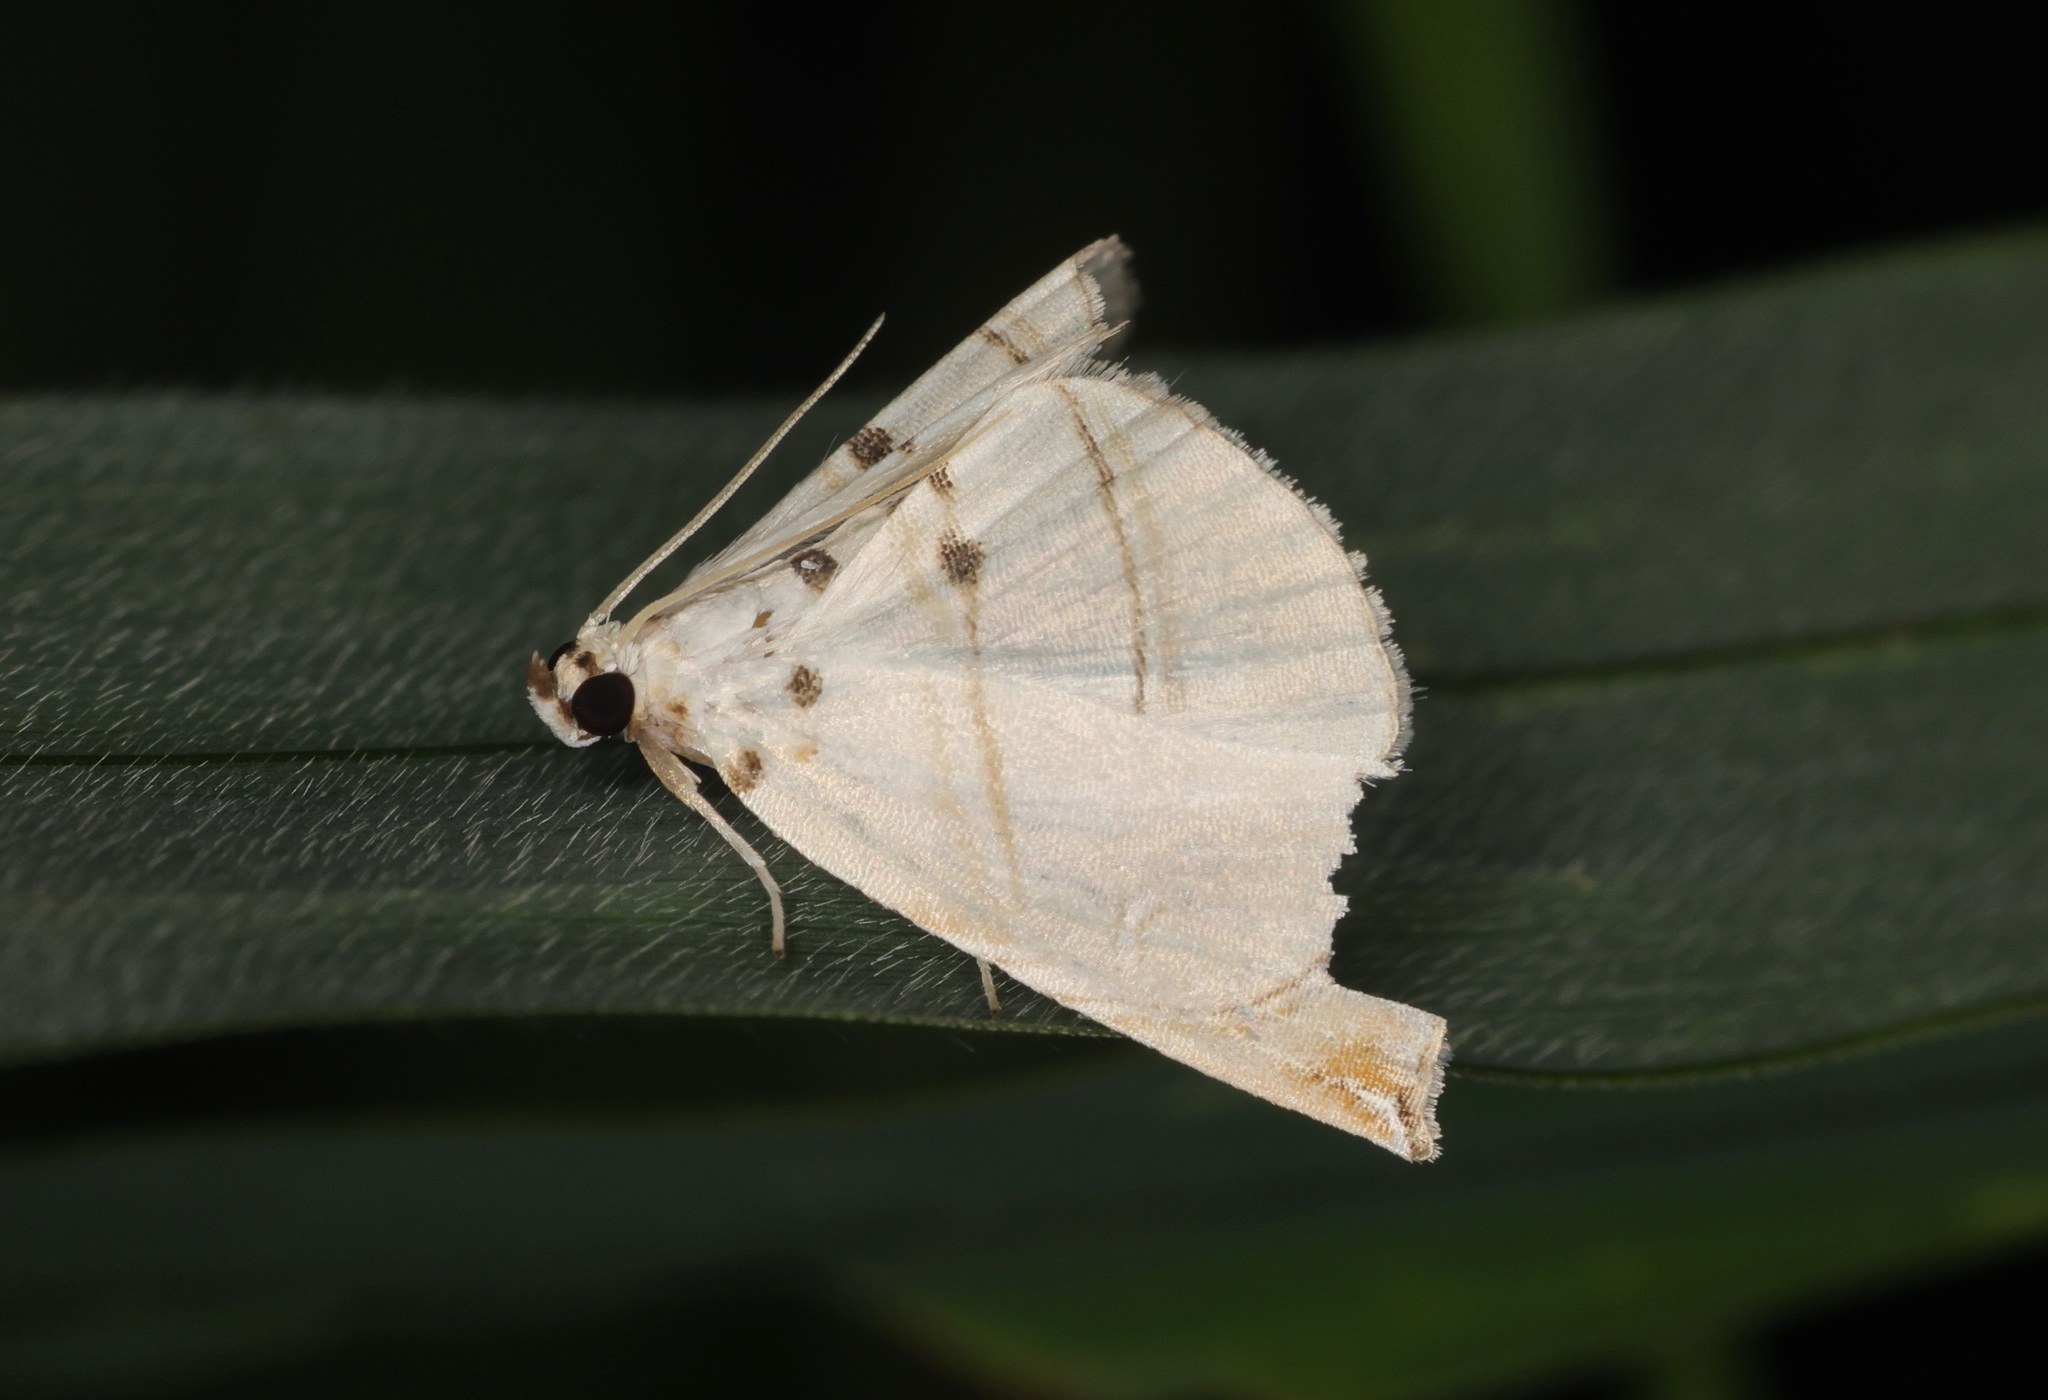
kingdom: Animalia
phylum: Arthropoda
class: Insecta
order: Lepidoptera
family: Crambidae
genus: Trichophysetis
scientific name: Trichophysetis hampsoni
